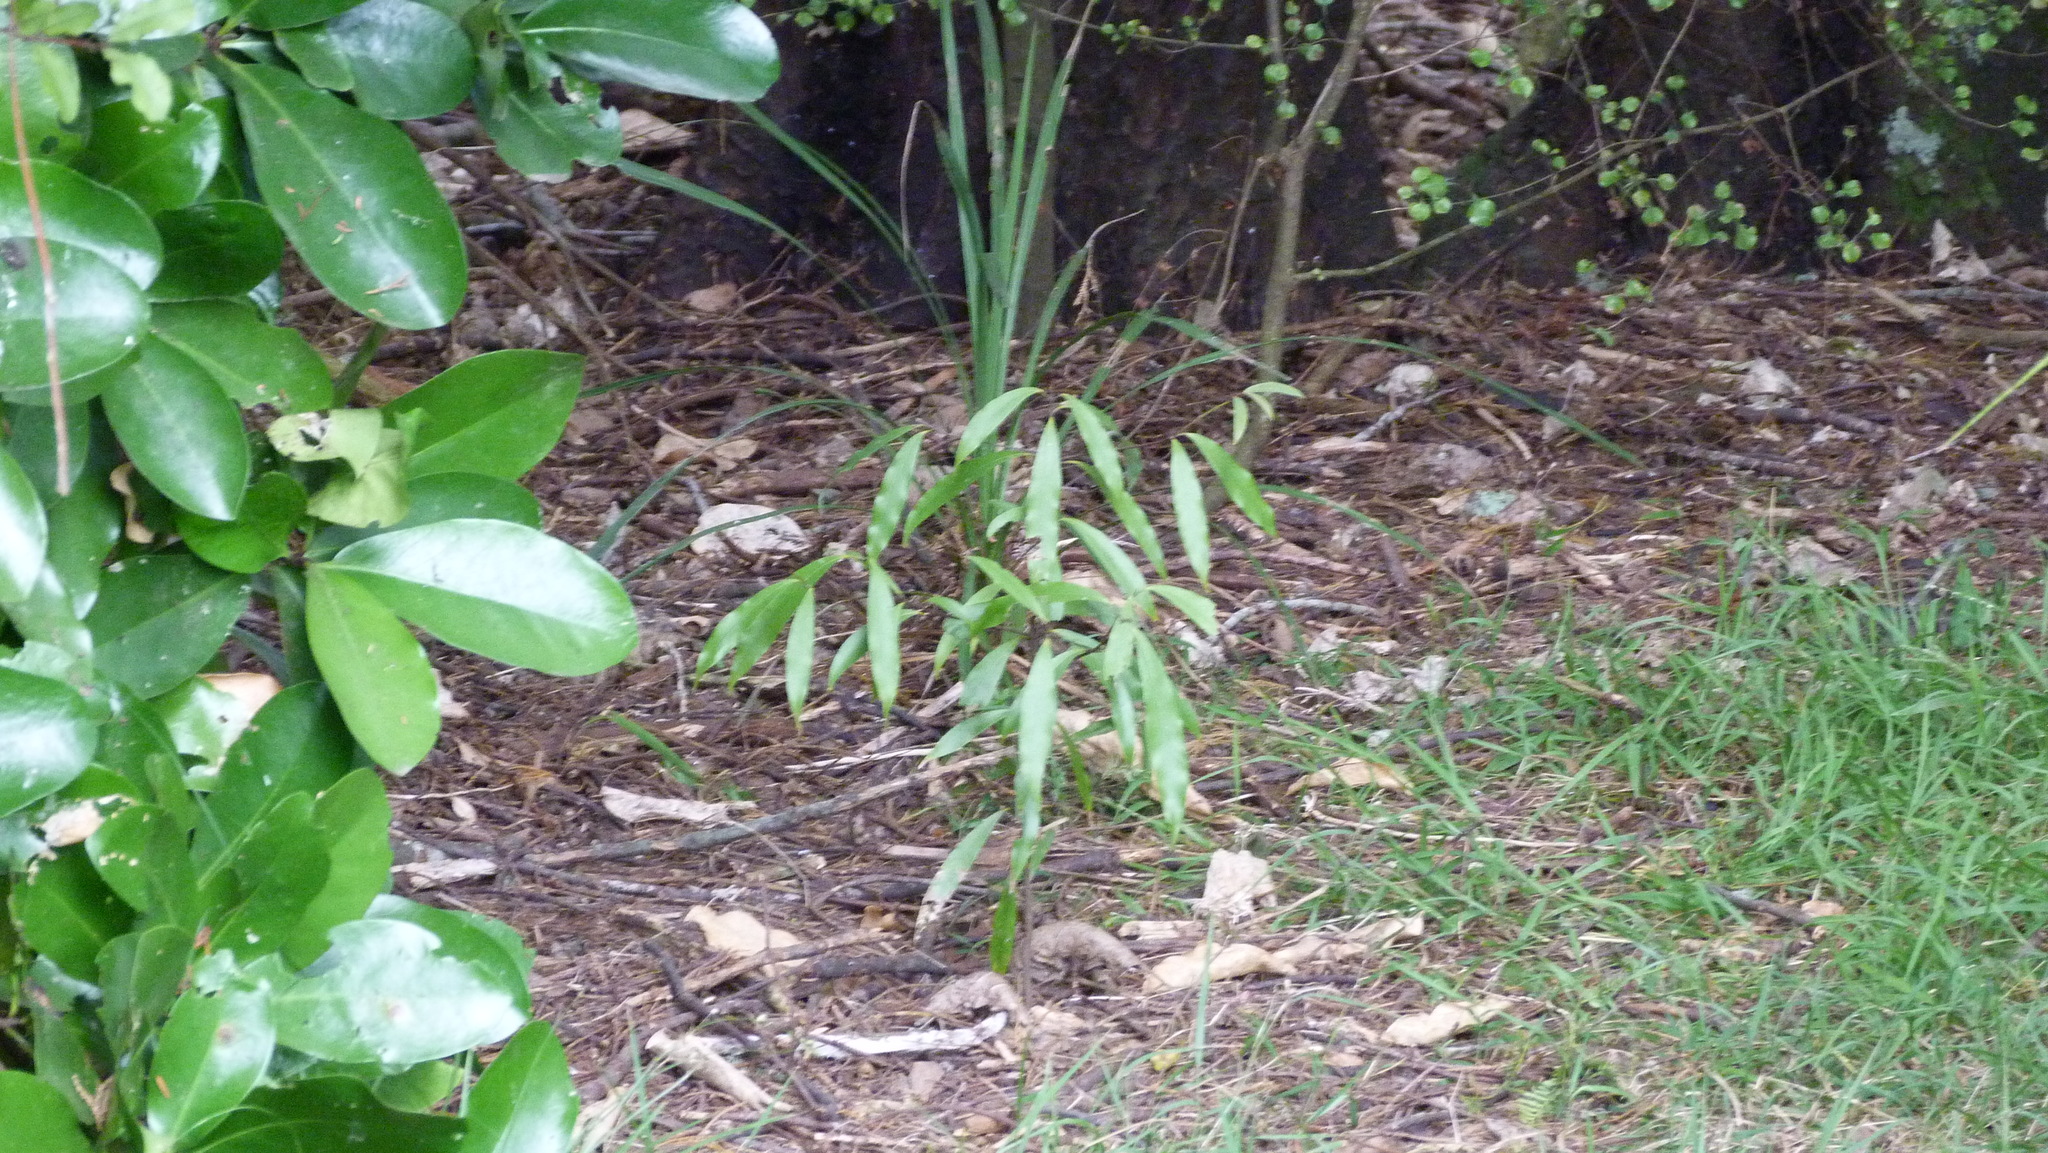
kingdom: Plantae
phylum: Tracheophyta
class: Magnoliopsida
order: Laurales
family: Lauraceae
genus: Beilschmiedia
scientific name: Beilschmiedia tawa
